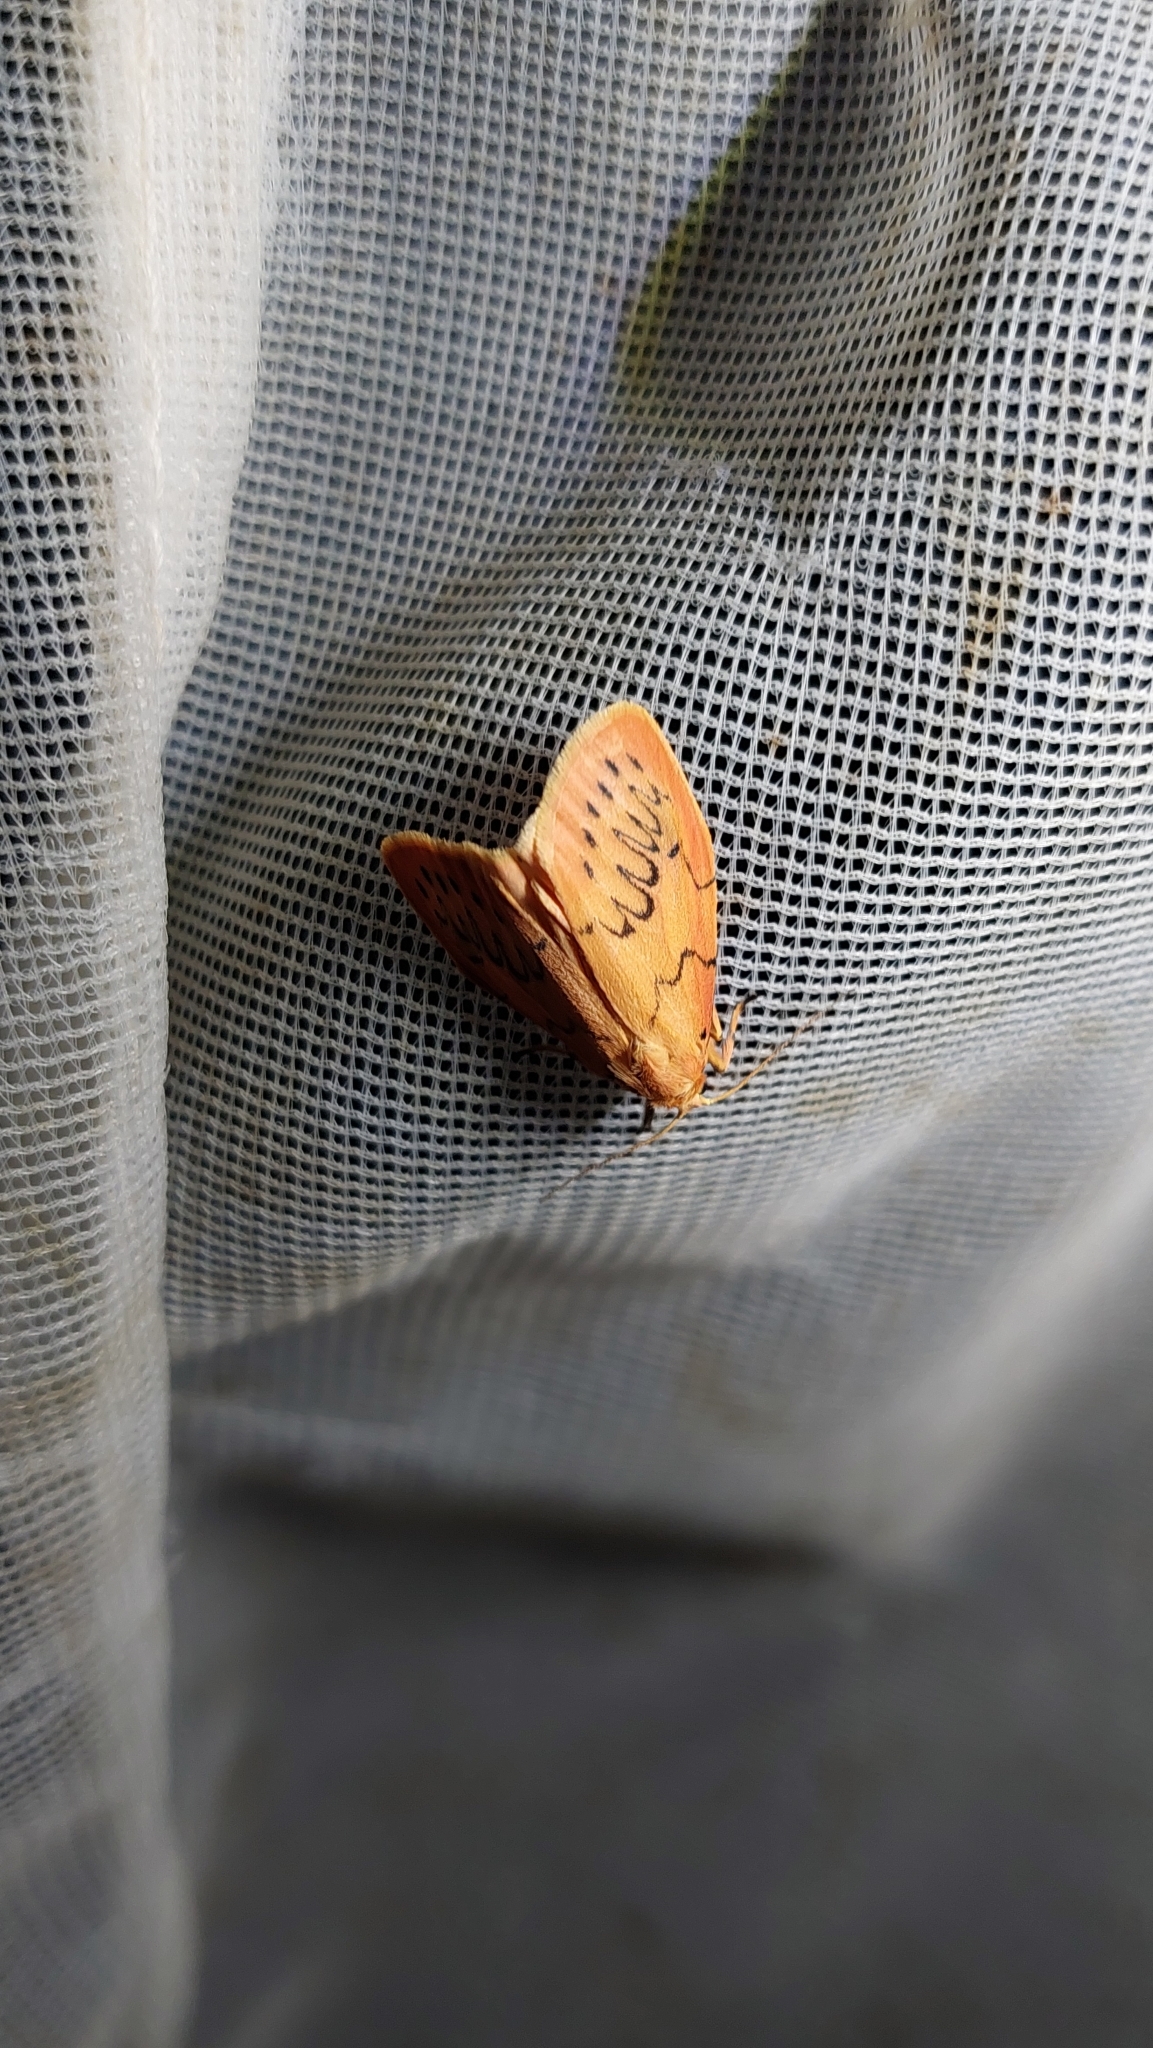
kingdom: Animalia
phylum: Arthropoda
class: Insecta
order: Lepidoptera
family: Erebidae
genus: Miltochrista
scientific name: Miltochrista miniata
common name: Rosy footman
